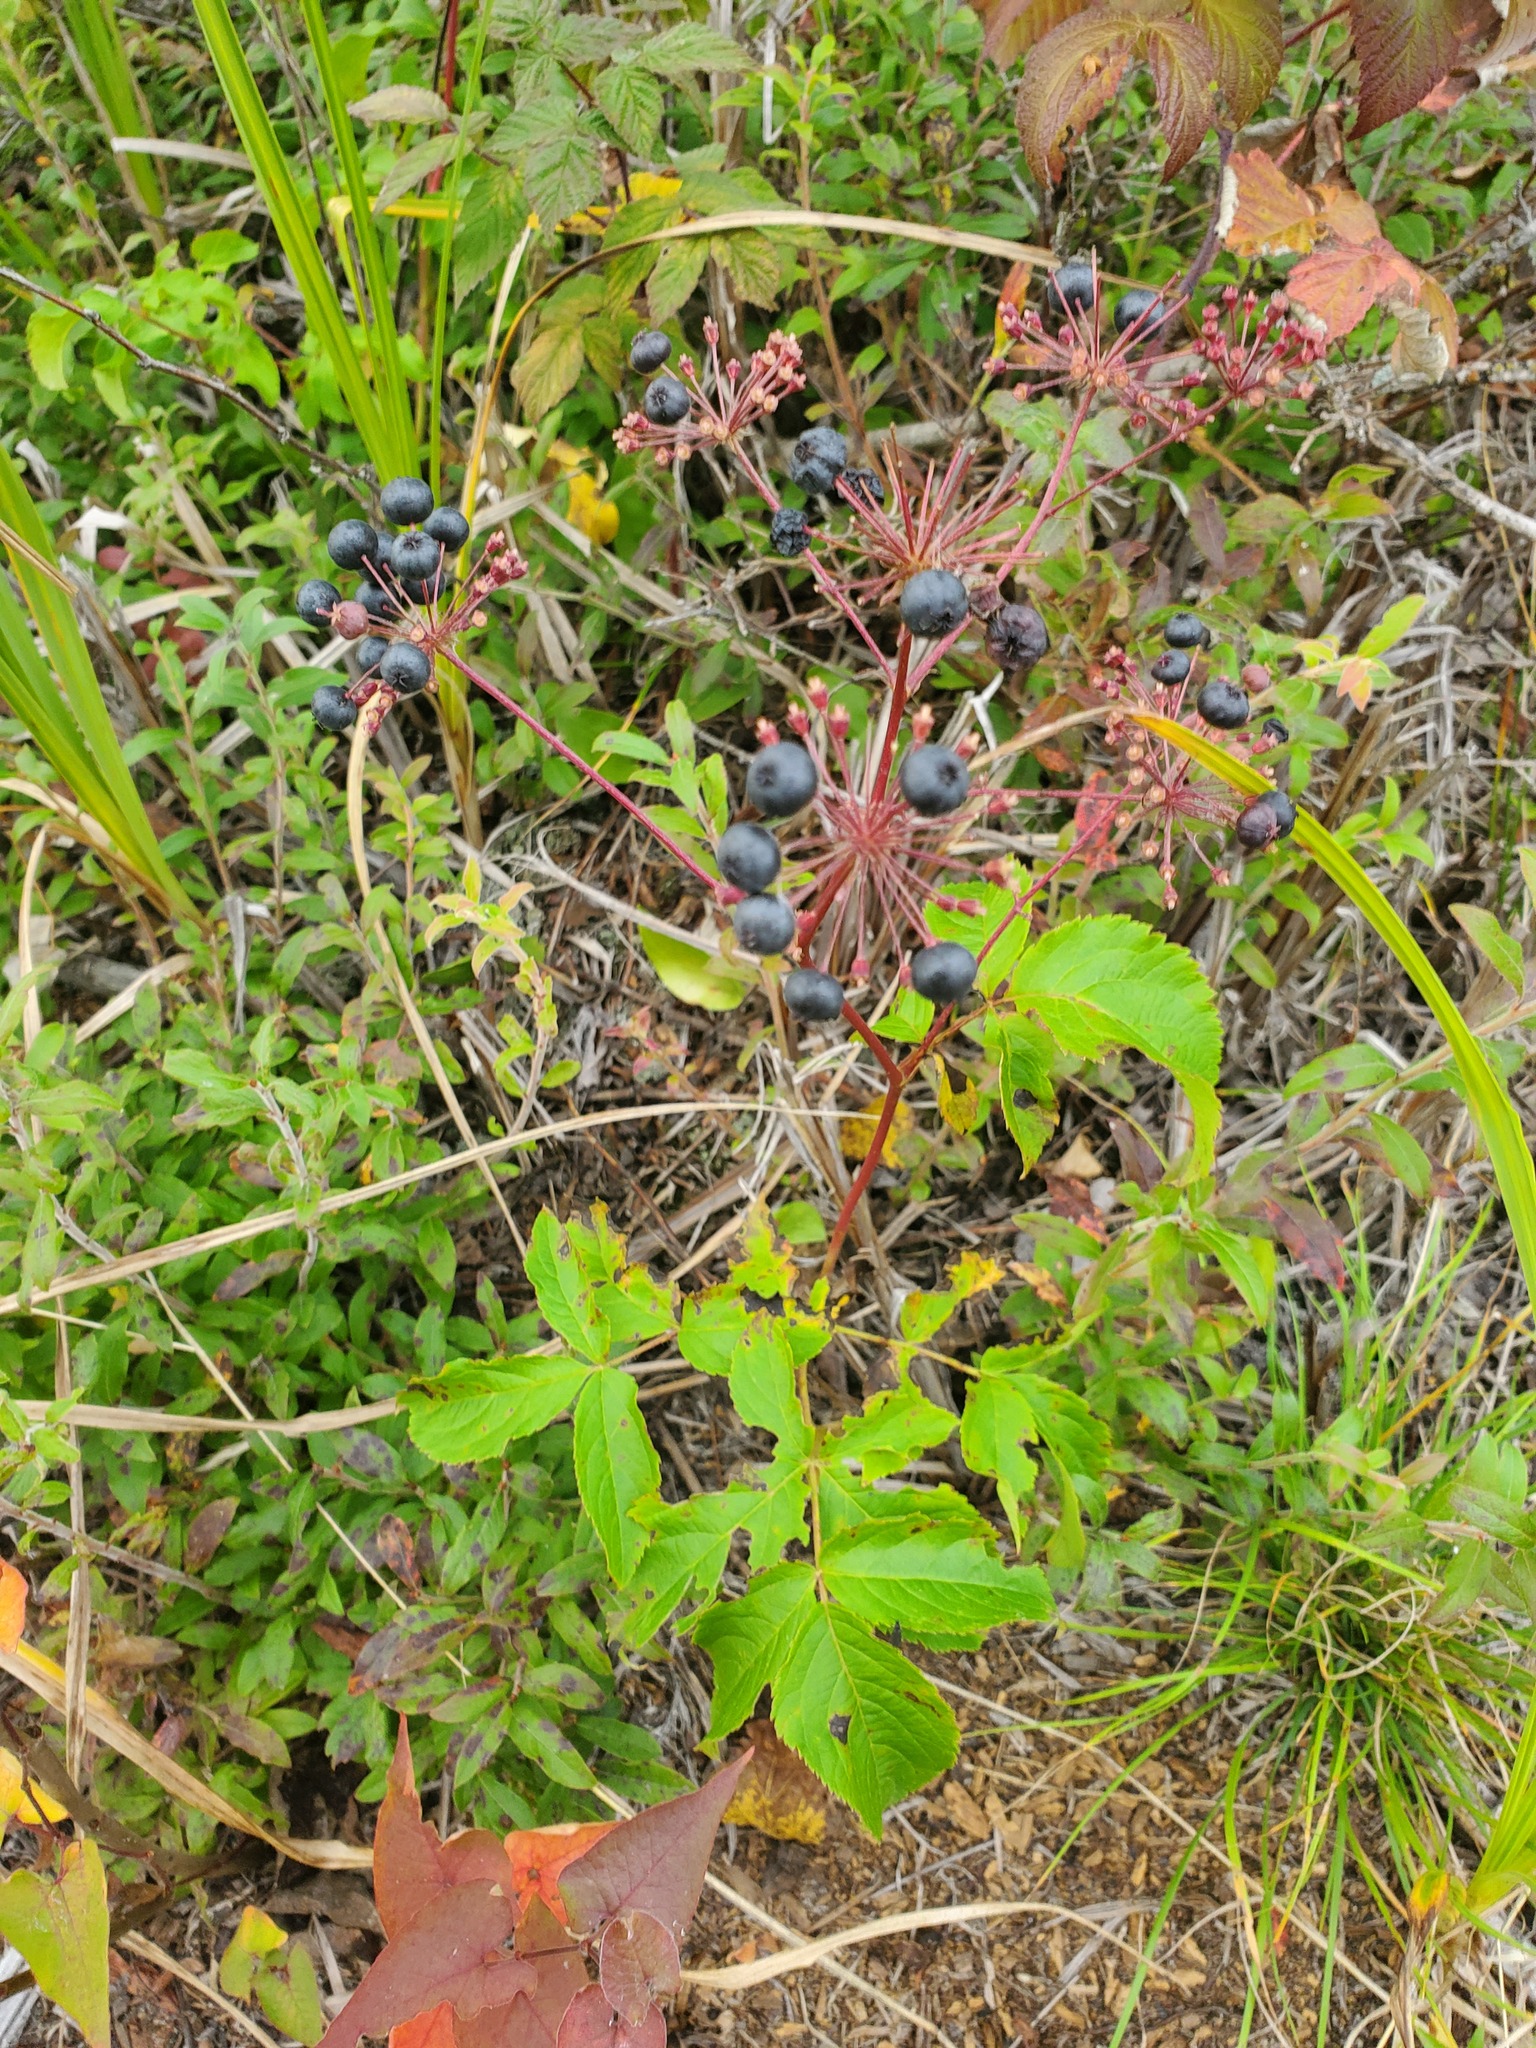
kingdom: Plantae
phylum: Tracheophyta
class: Magnoliopsida
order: Apiales
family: Araliaceae
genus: Aralia
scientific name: Aralia hispida
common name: Bristly sarsaparilla
